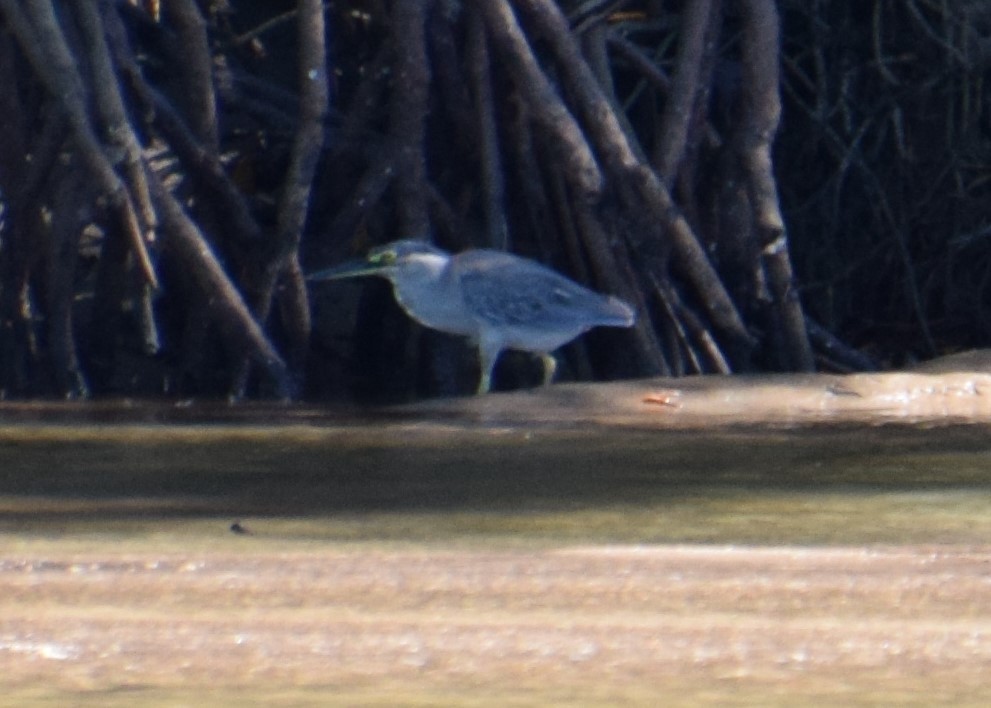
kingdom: Animalia
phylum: Chordata
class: Aves
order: Pelecaniformes
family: Ardeidae
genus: Butorides
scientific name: Butorides striata
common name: Striated heron
